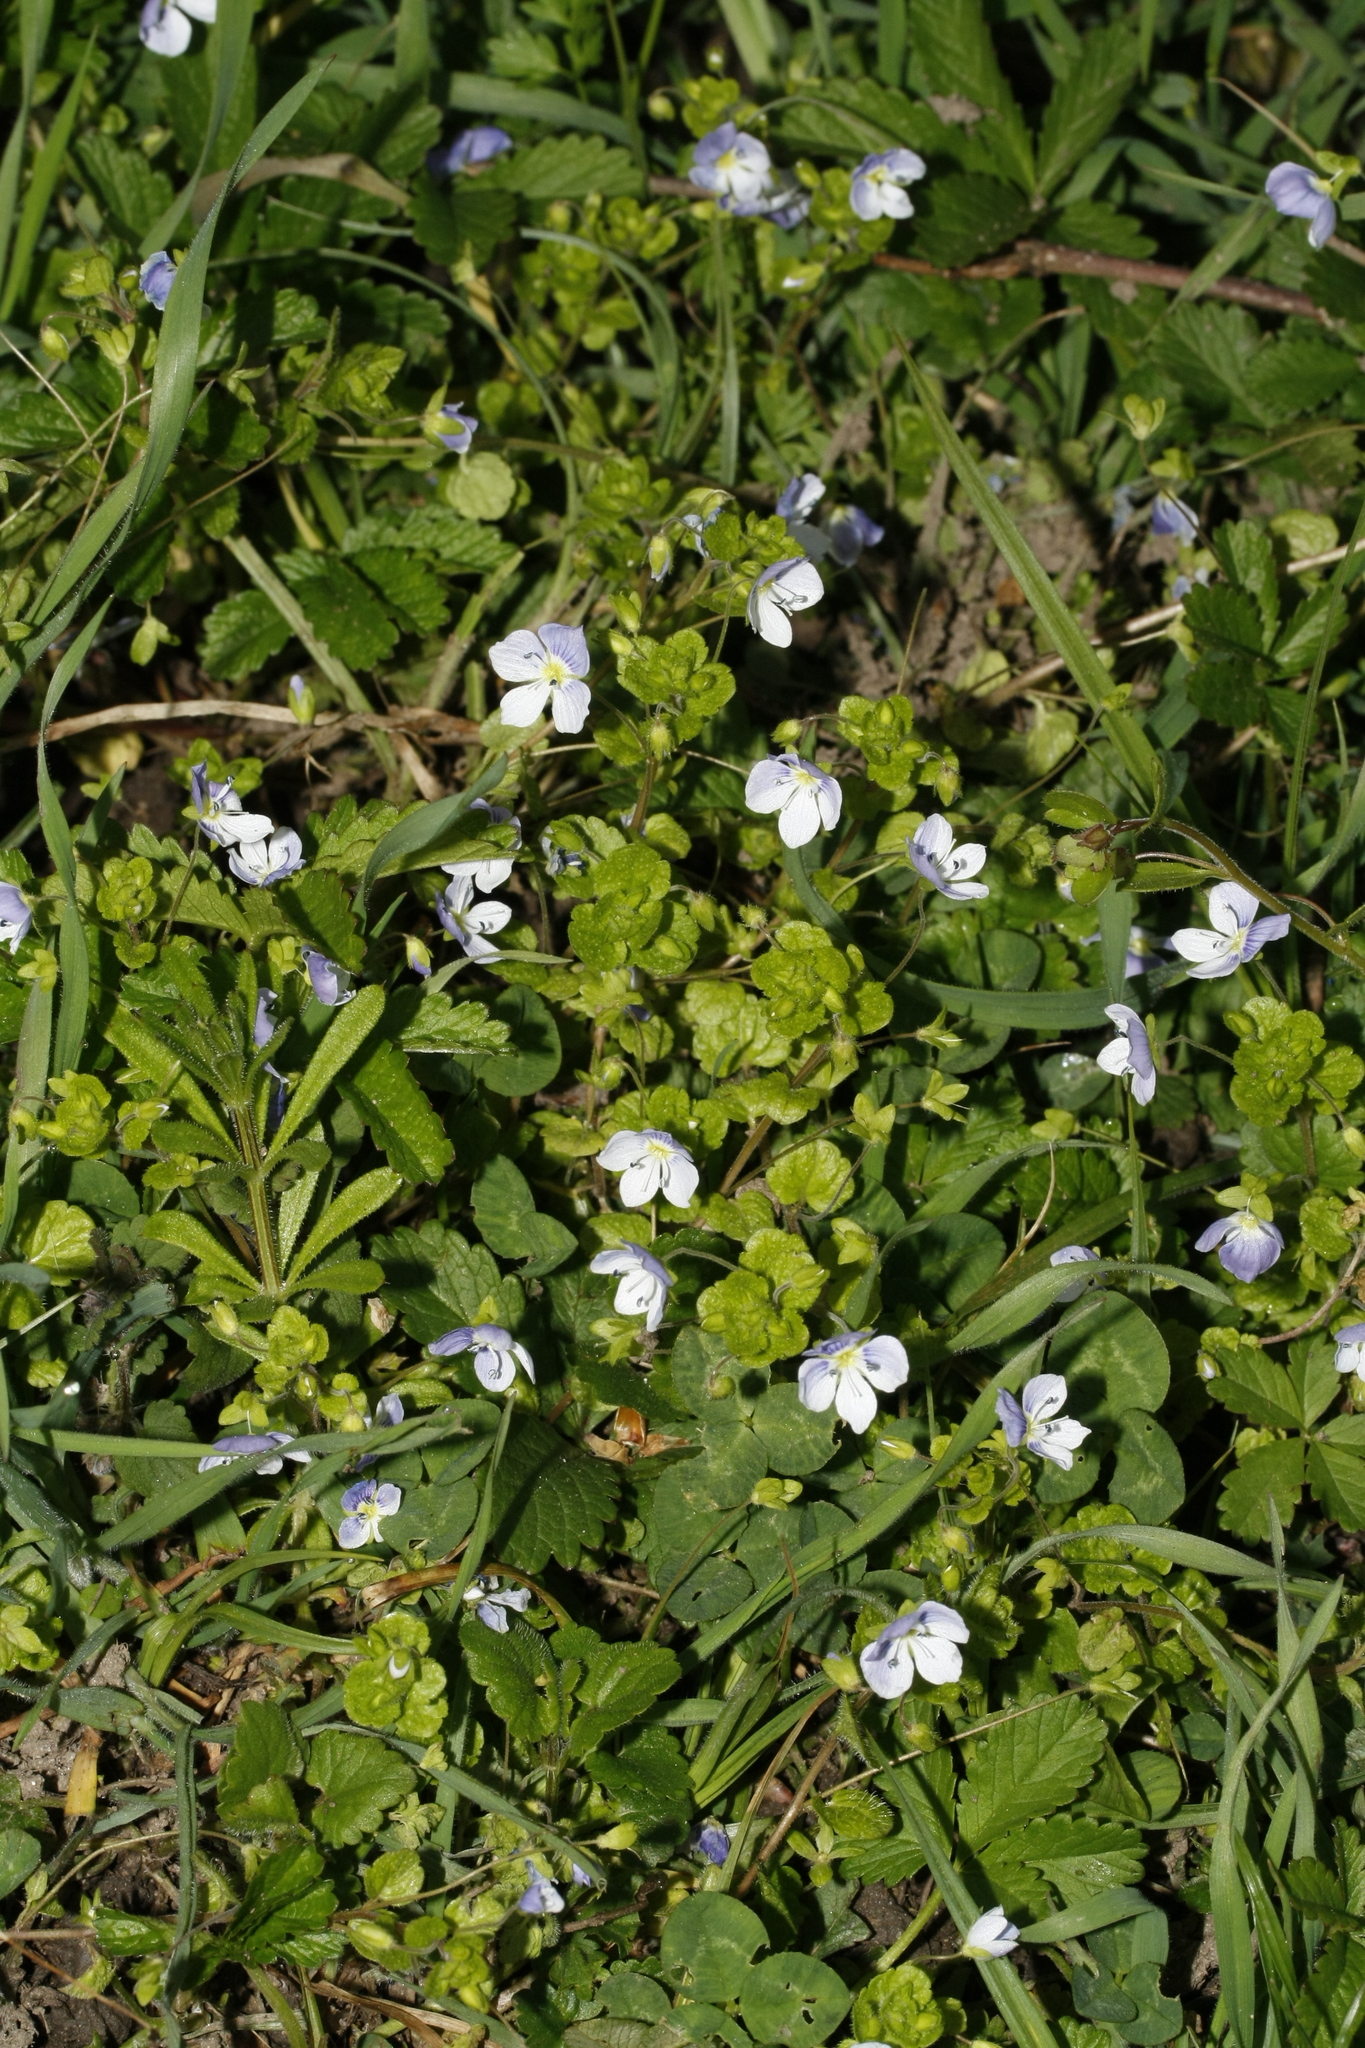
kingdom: Plantae
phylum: Tracheophyta
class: Magnoliopsida
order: Lamiales
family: Plantaginaceae
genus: Veronica
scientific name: Veronica filiformis
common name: Slender speedwell
